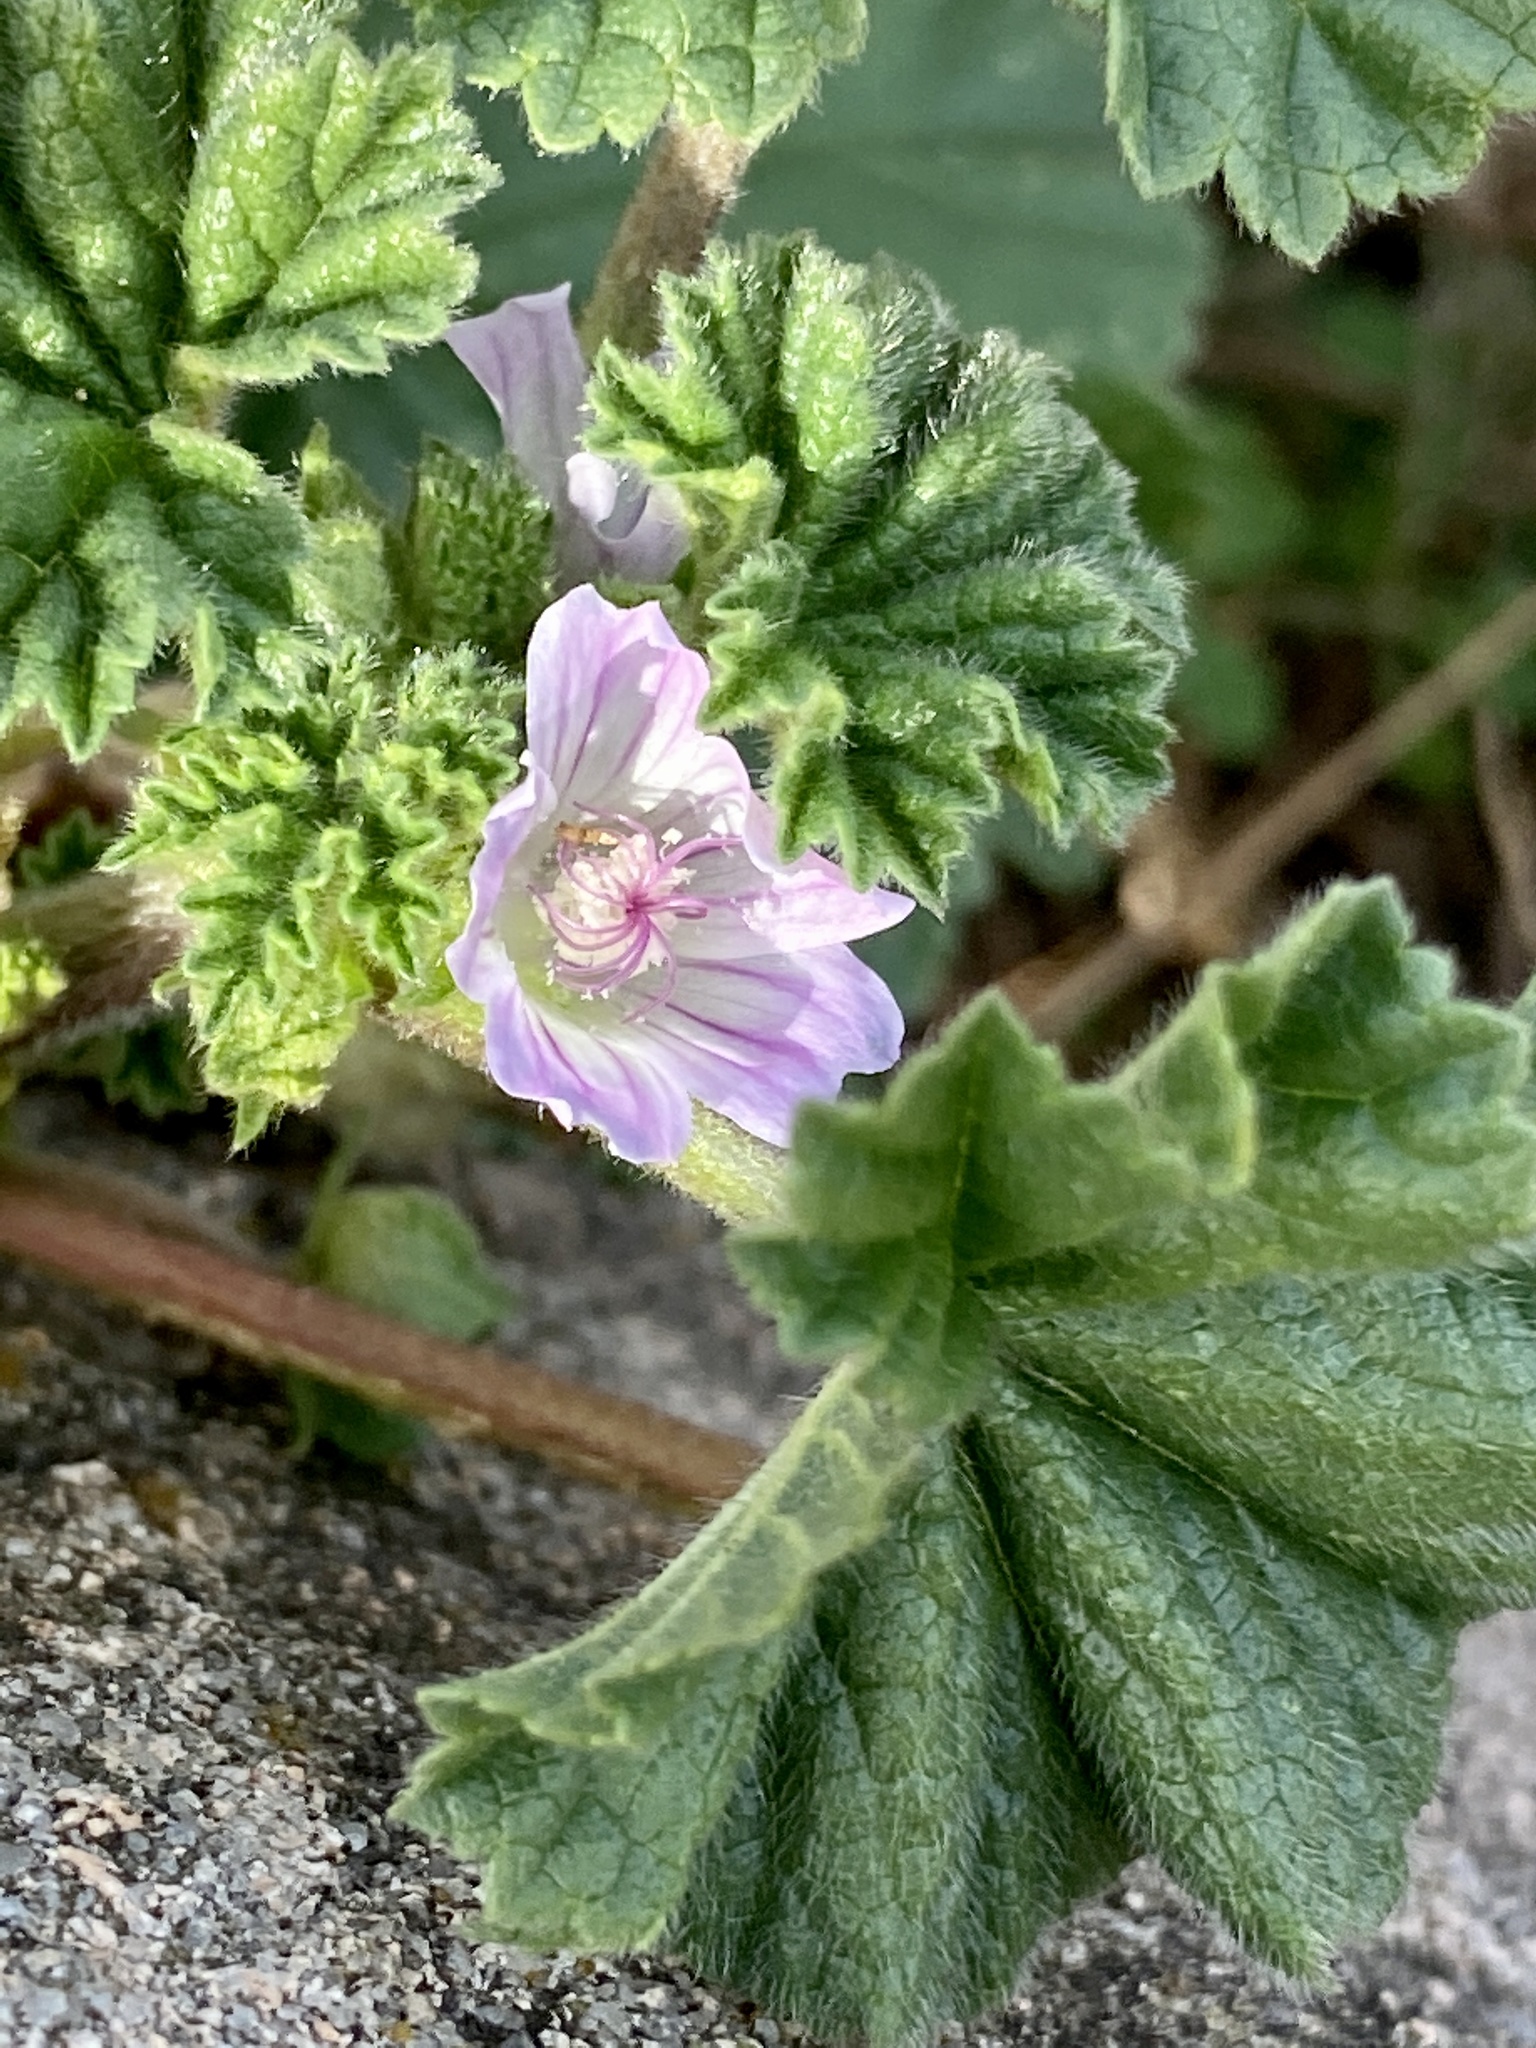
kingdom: Plantae
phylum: Tracheophyta
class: Magnoliopsida
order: Malvales
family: Malvaceae
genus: Malva
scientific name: Malva neglecta
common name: Common mallow
